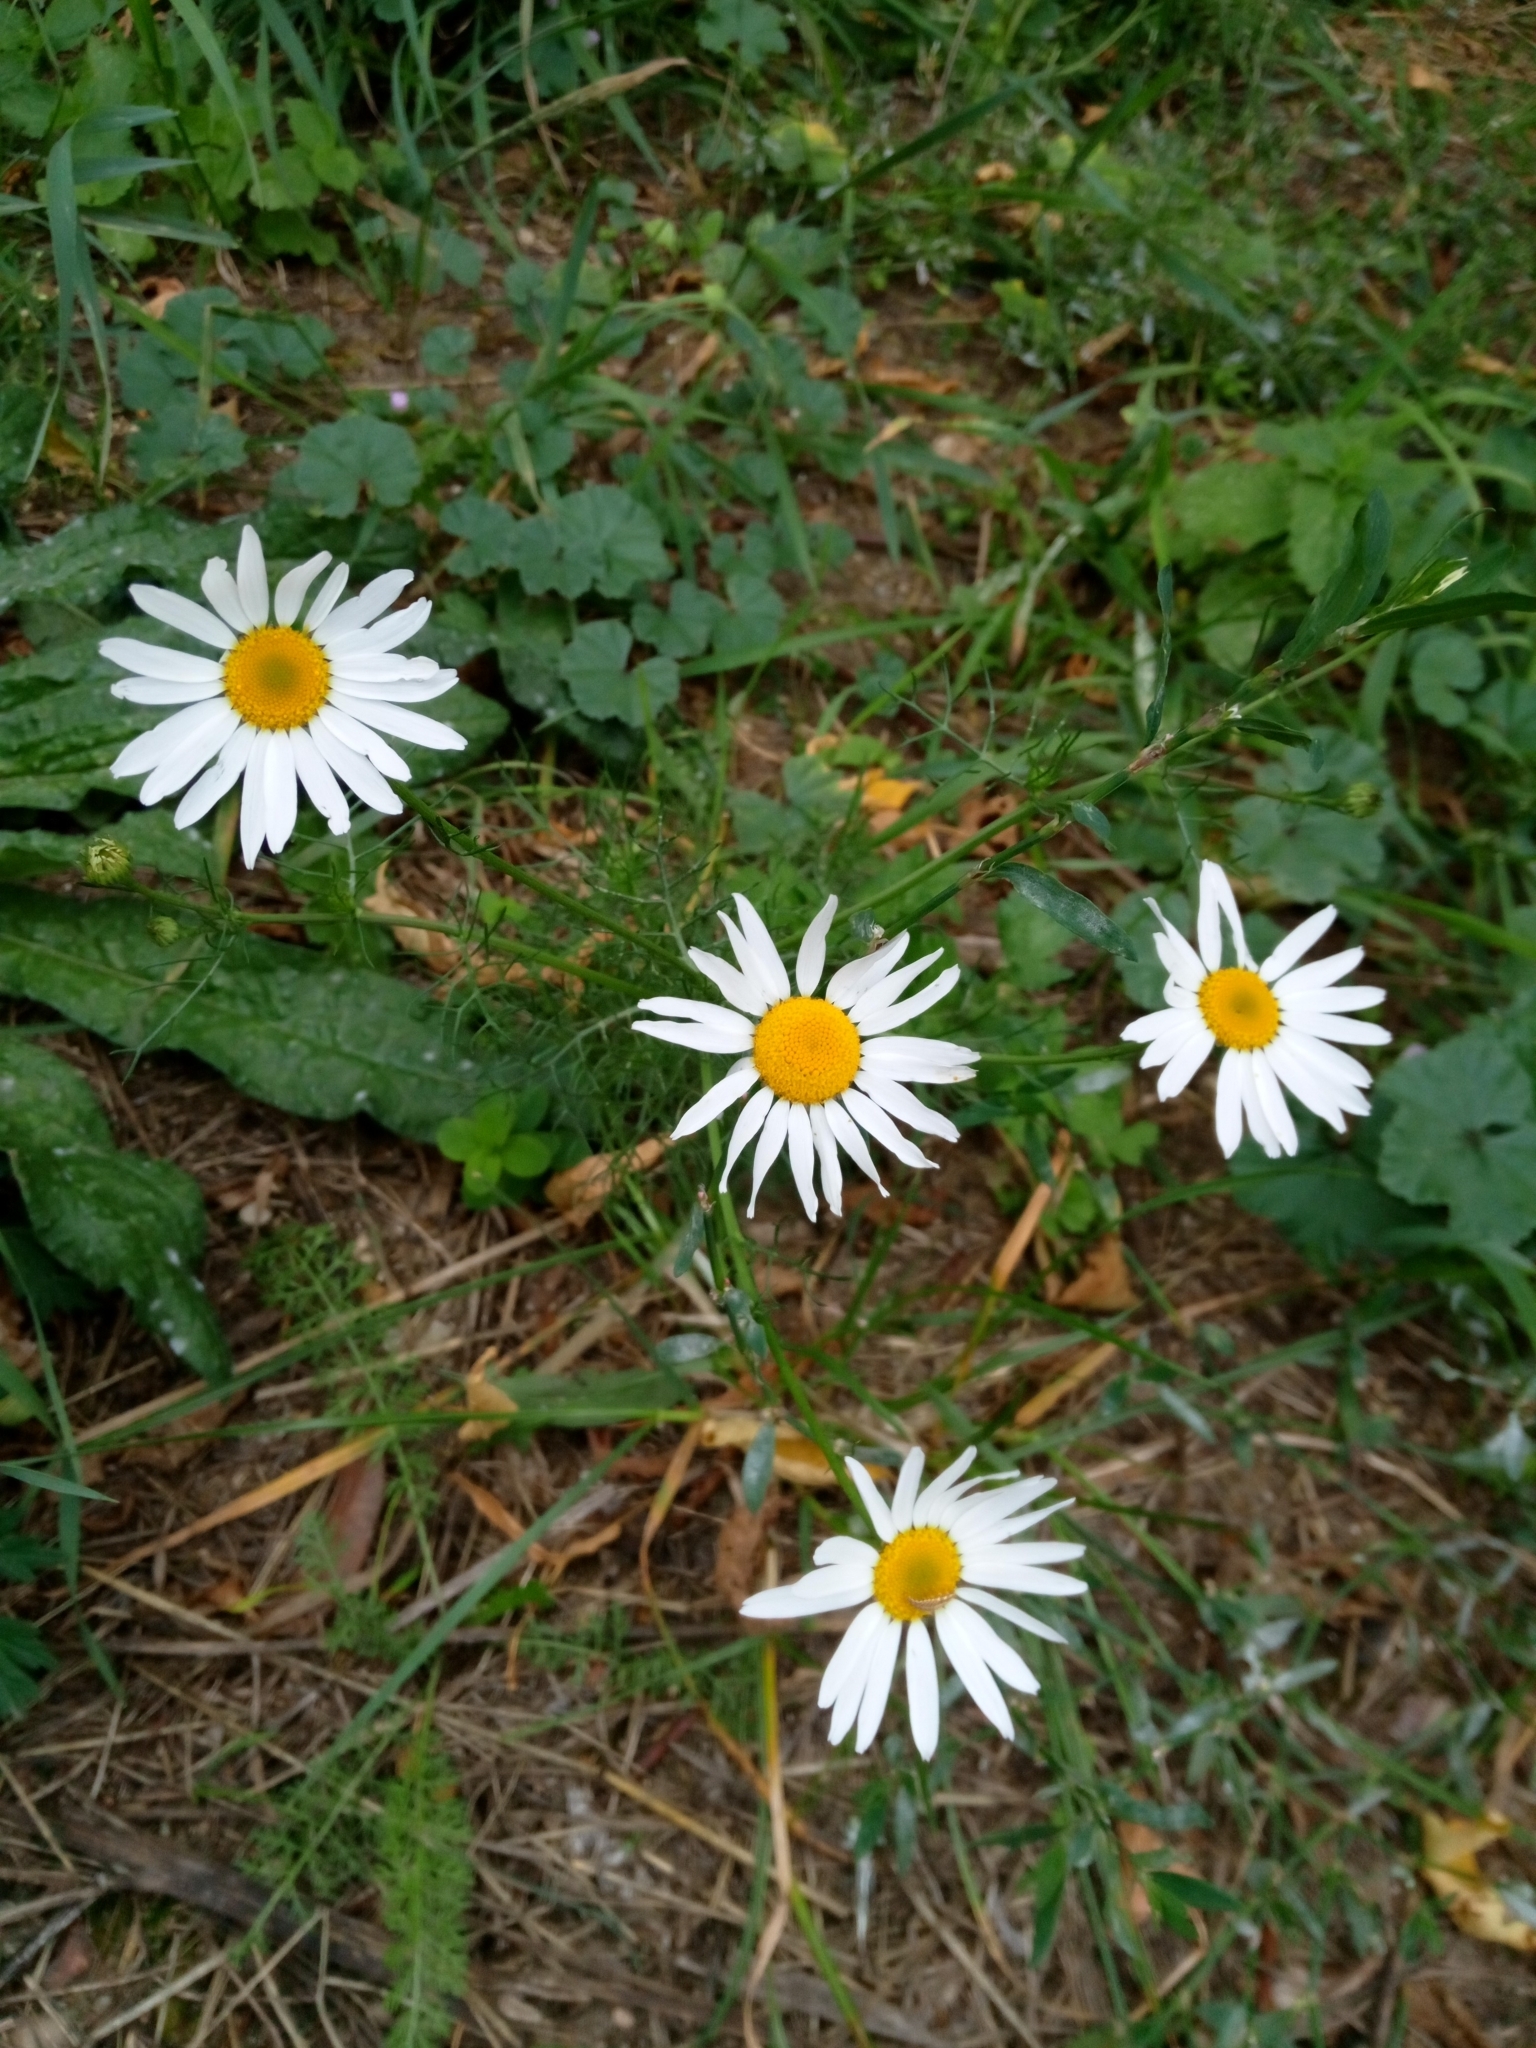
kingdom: Plantae
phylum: Tracheophyta
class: Magnoliopsida
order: Asterales
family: Asteraceae
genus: Tripleurospermum
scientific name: Tripleurospermum inodorum
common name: Scentless mayweed
